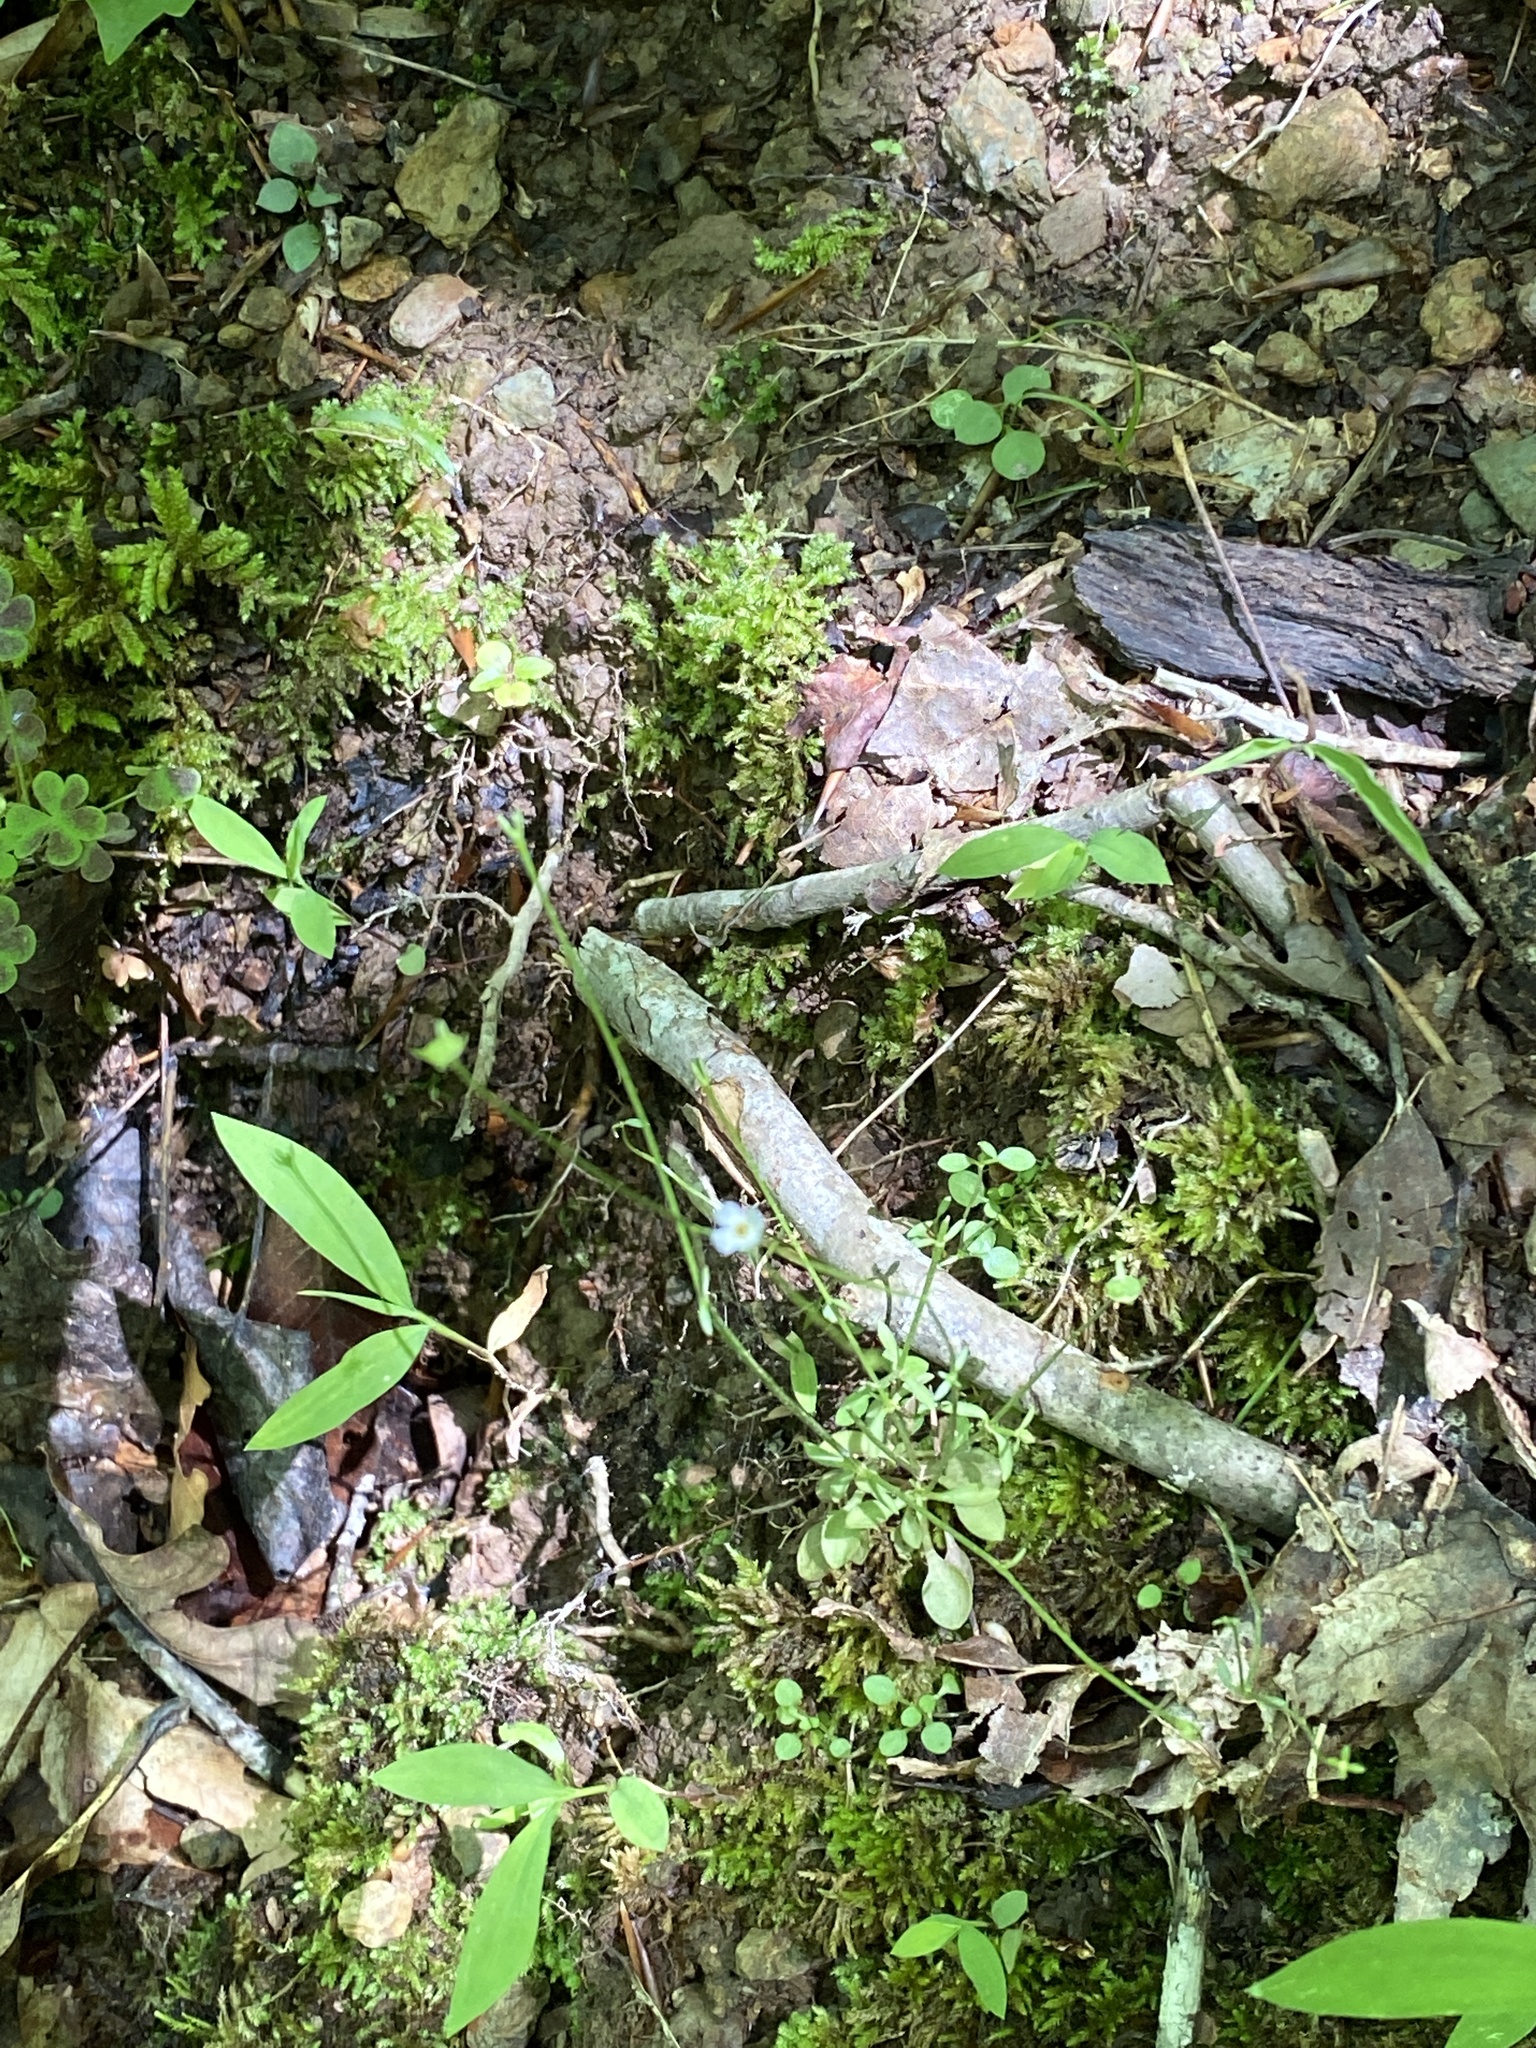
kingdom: Plantae
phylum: Tracheophyta
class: Magnoliopsida
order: Gentianales
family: Rubiaceae
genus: Houstonia
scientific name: Houstonia caerulea
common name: Bluets
